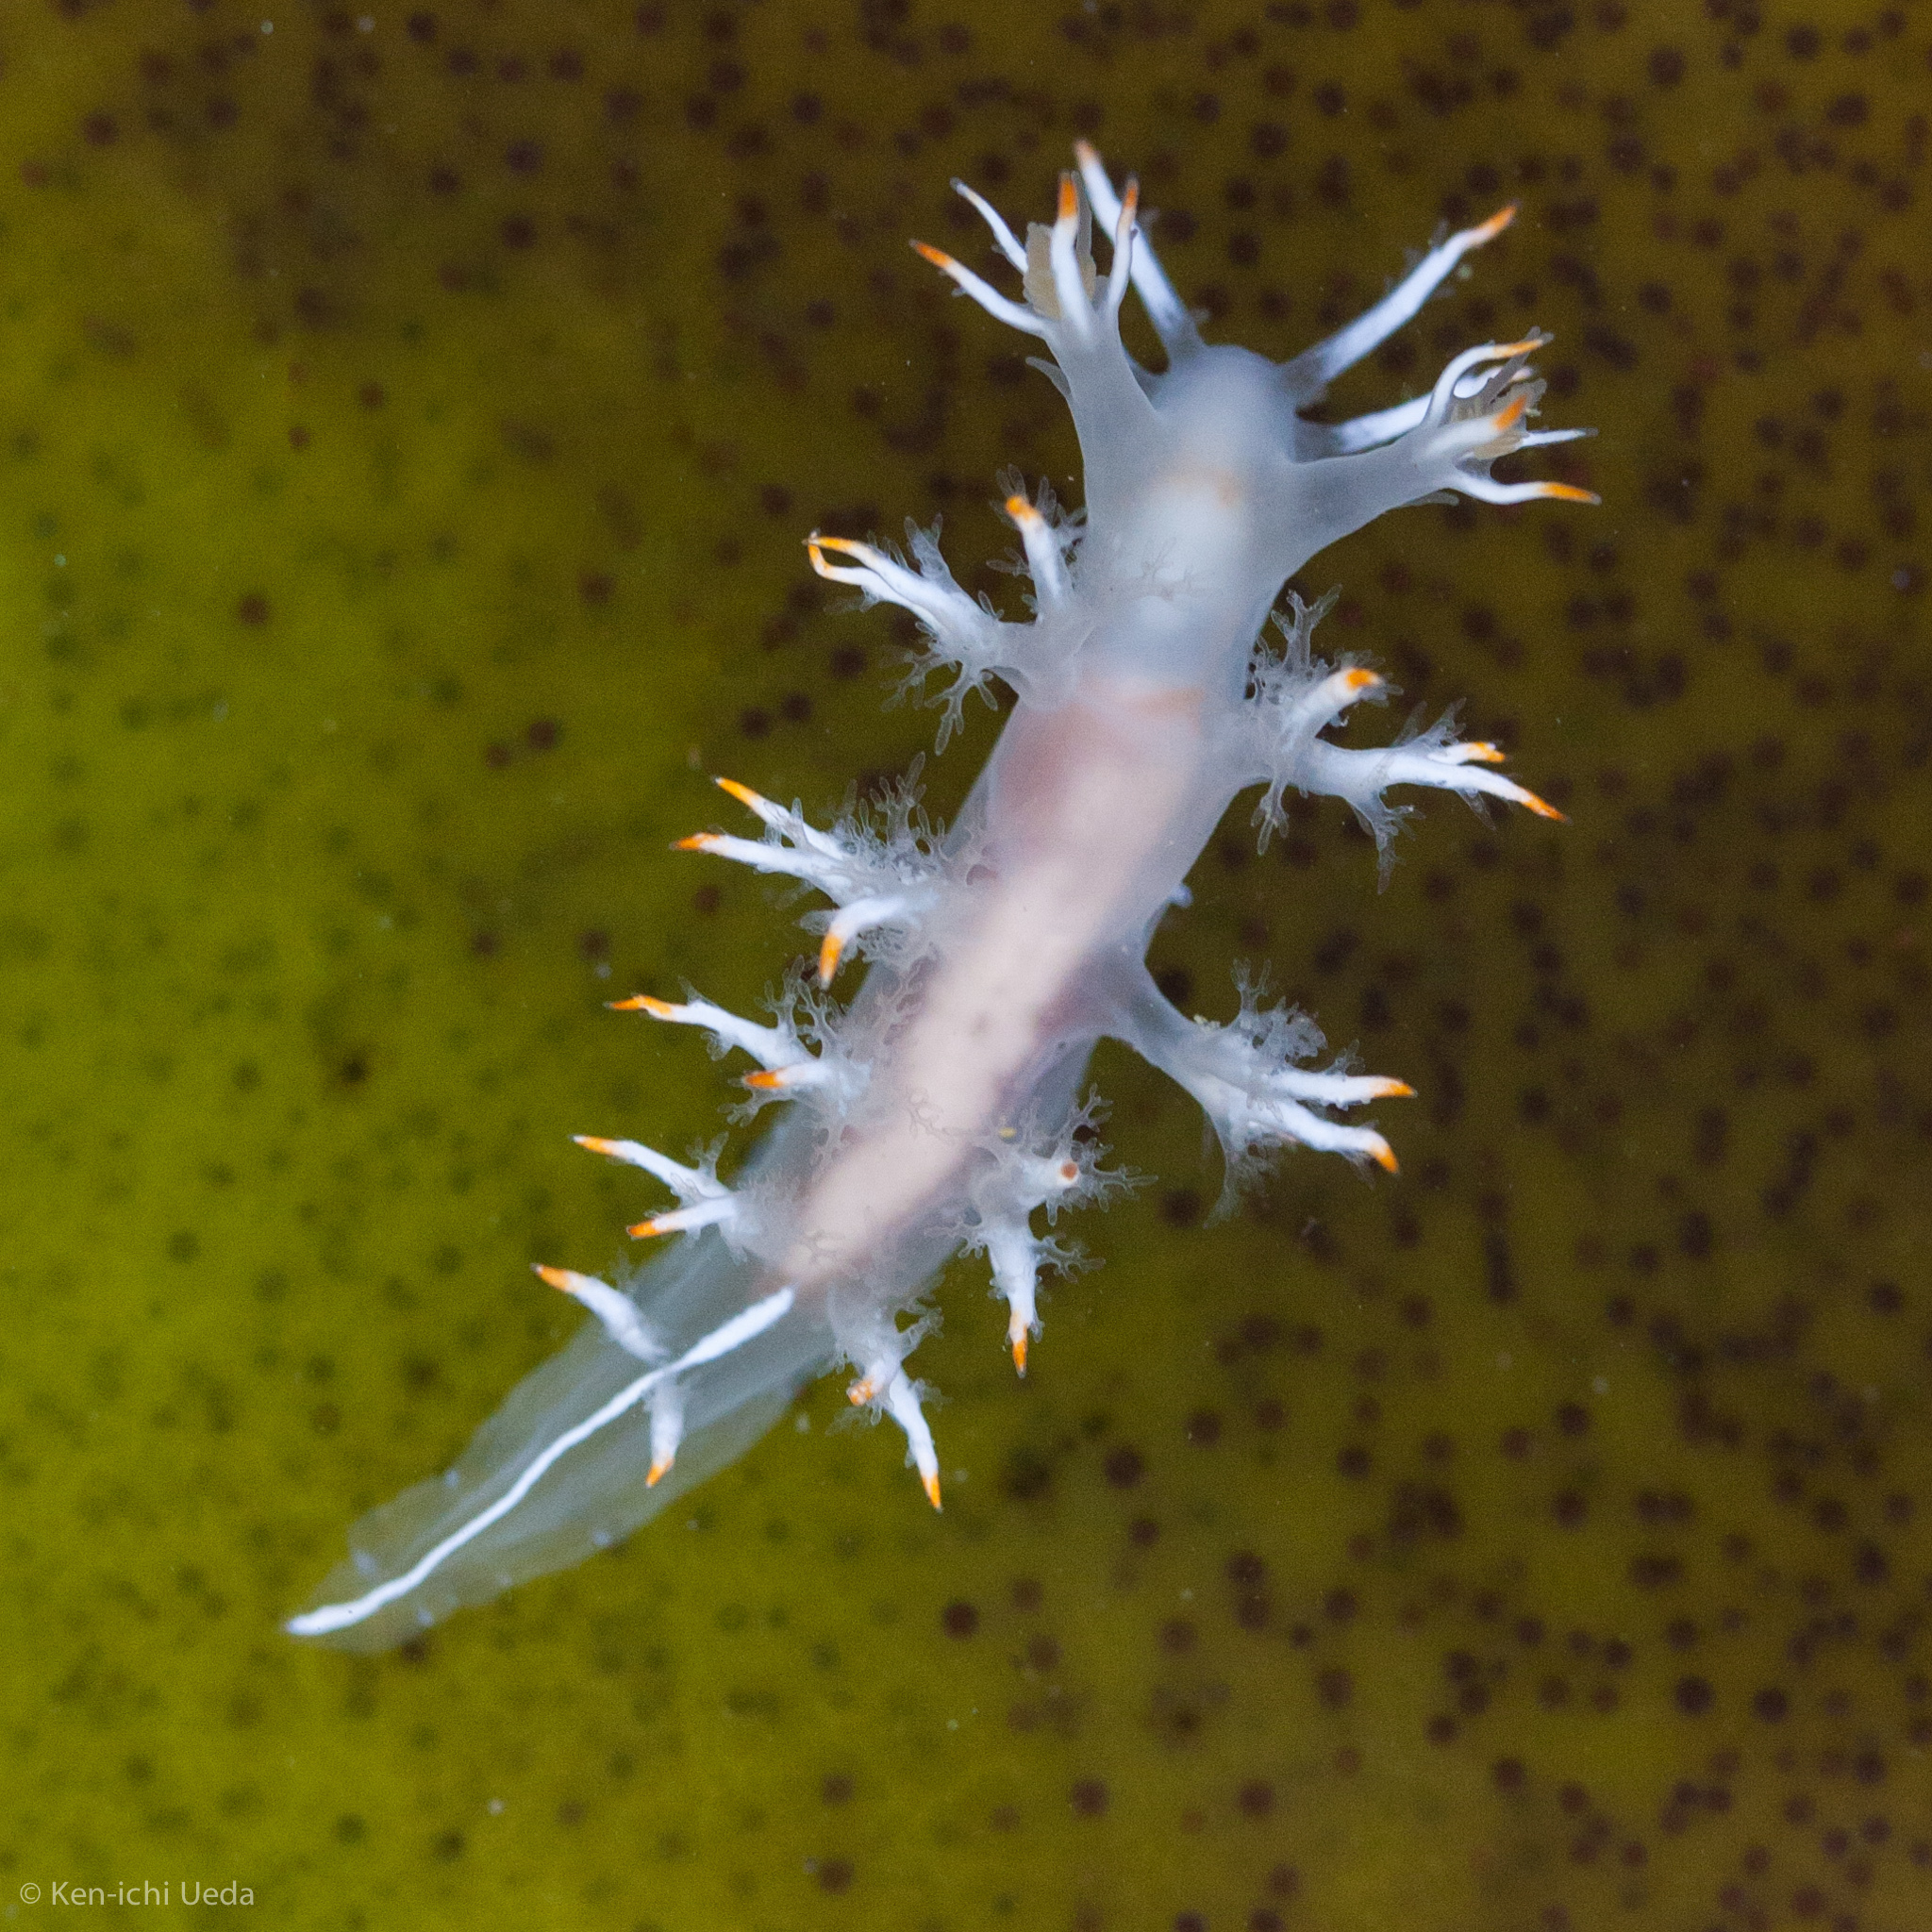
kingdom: Animalia
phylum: Mollusca
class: Gastropoda
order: Nudibranchia
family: Dendronotidae
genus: Dendronotus
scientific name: Dendronotus albus
